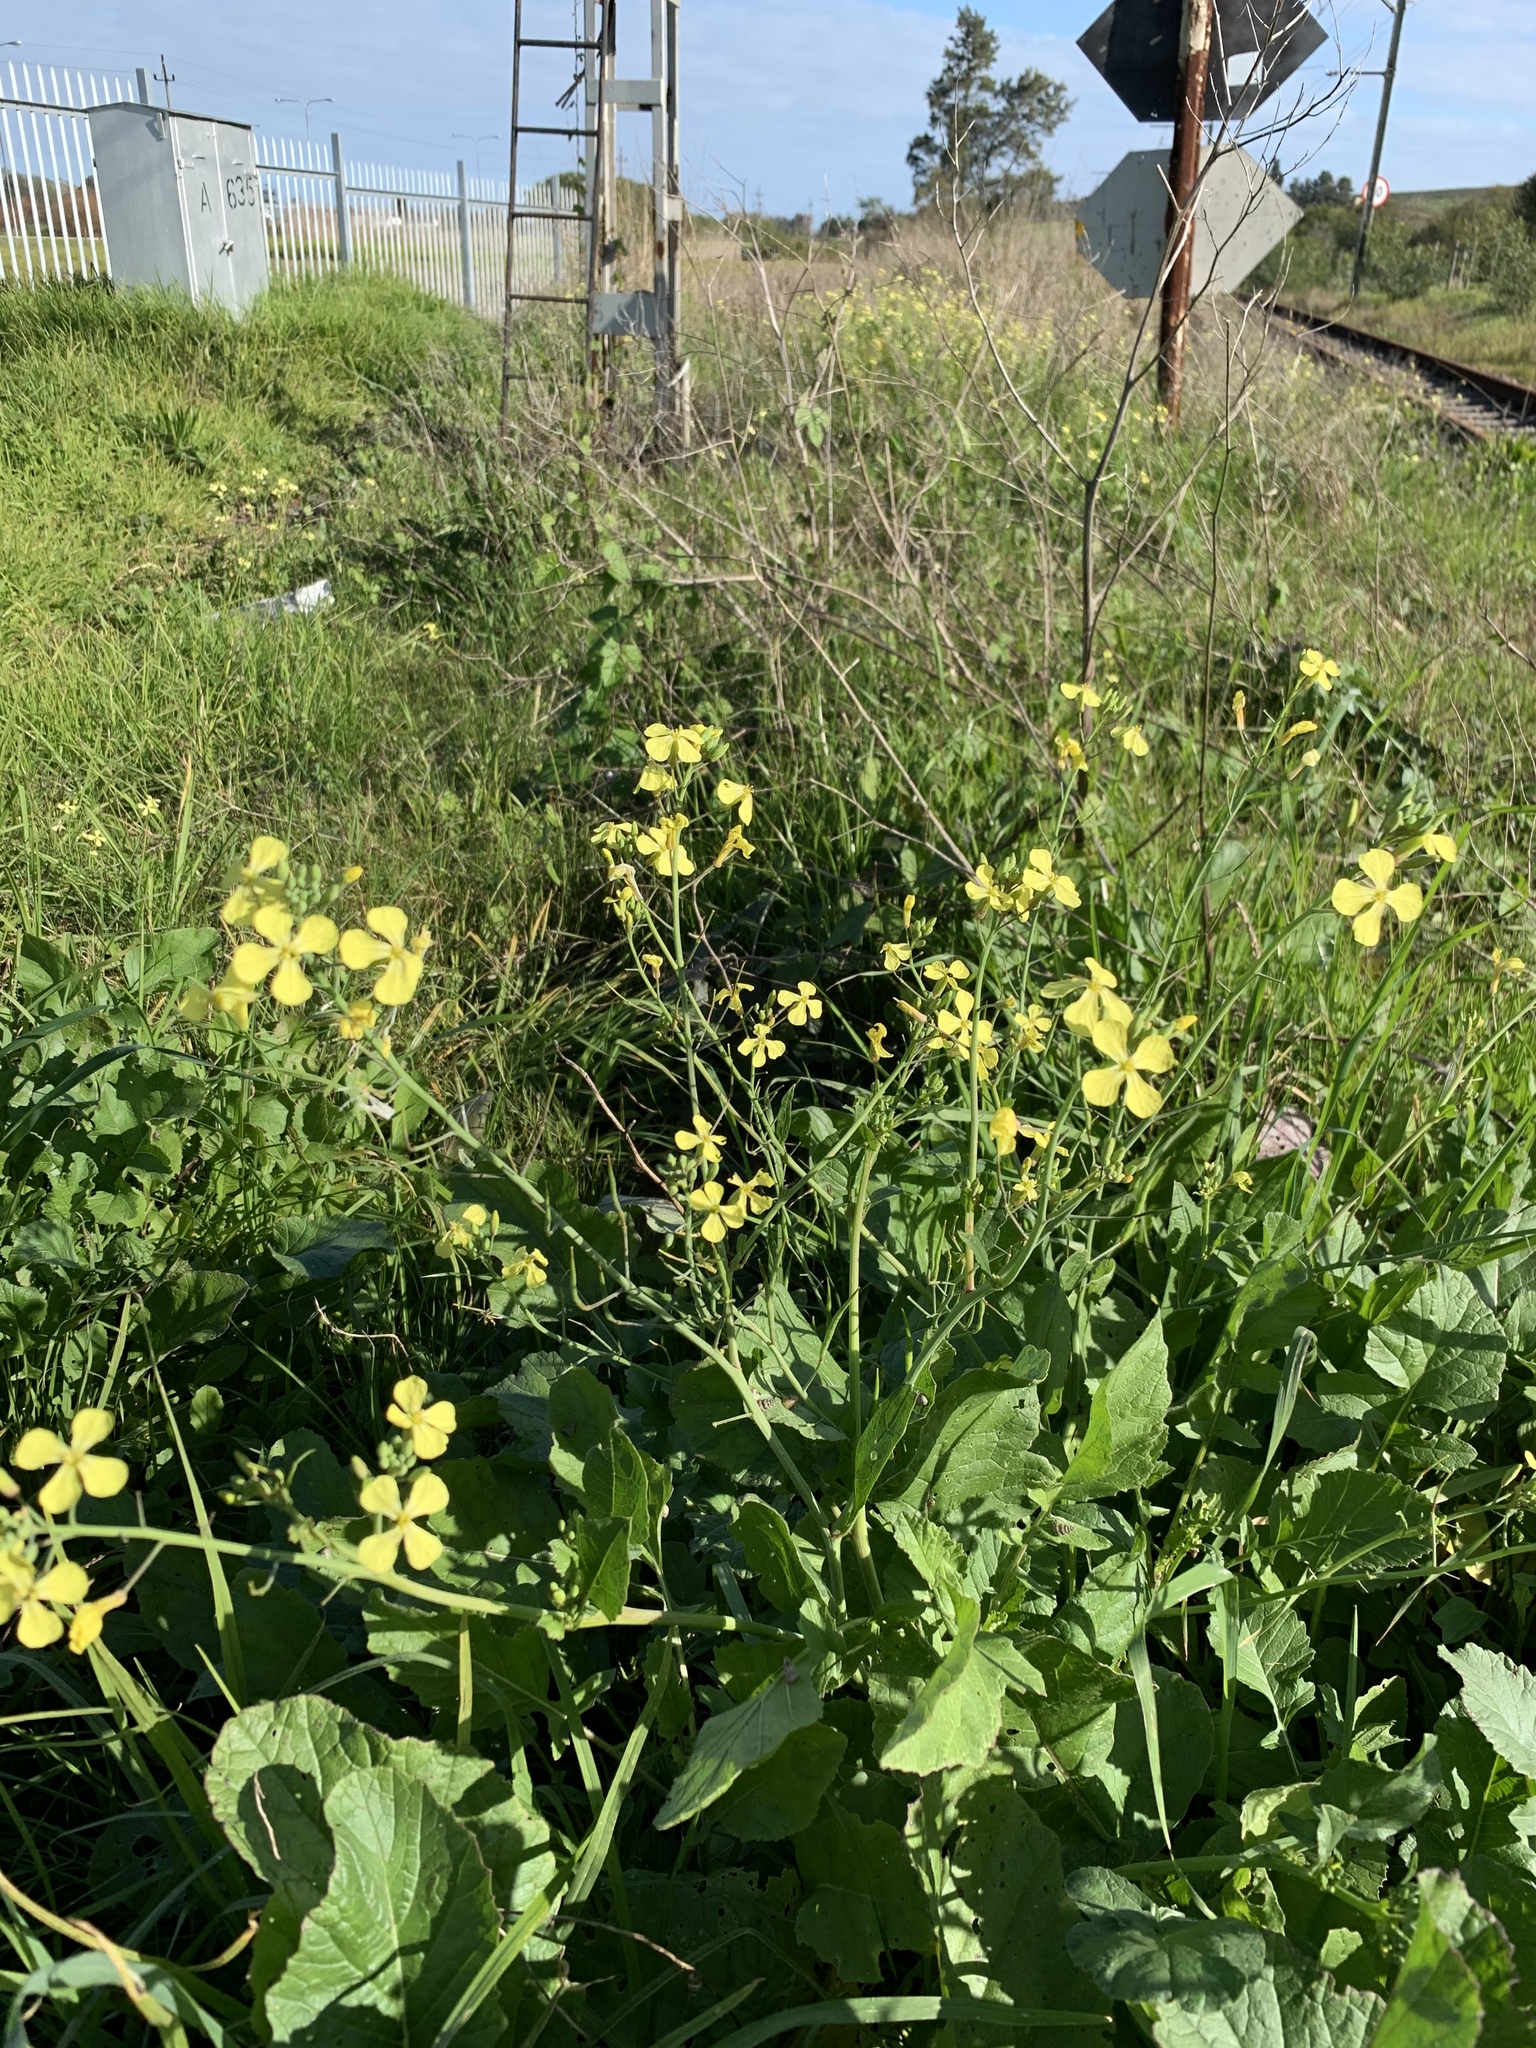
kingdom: Plantae
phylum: Tracheophyta
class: Magnoliopsida
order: Brassicales
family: Brassicaceae
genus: Raphanus
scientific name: Raphanus raphanistrum
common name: Wild radish
